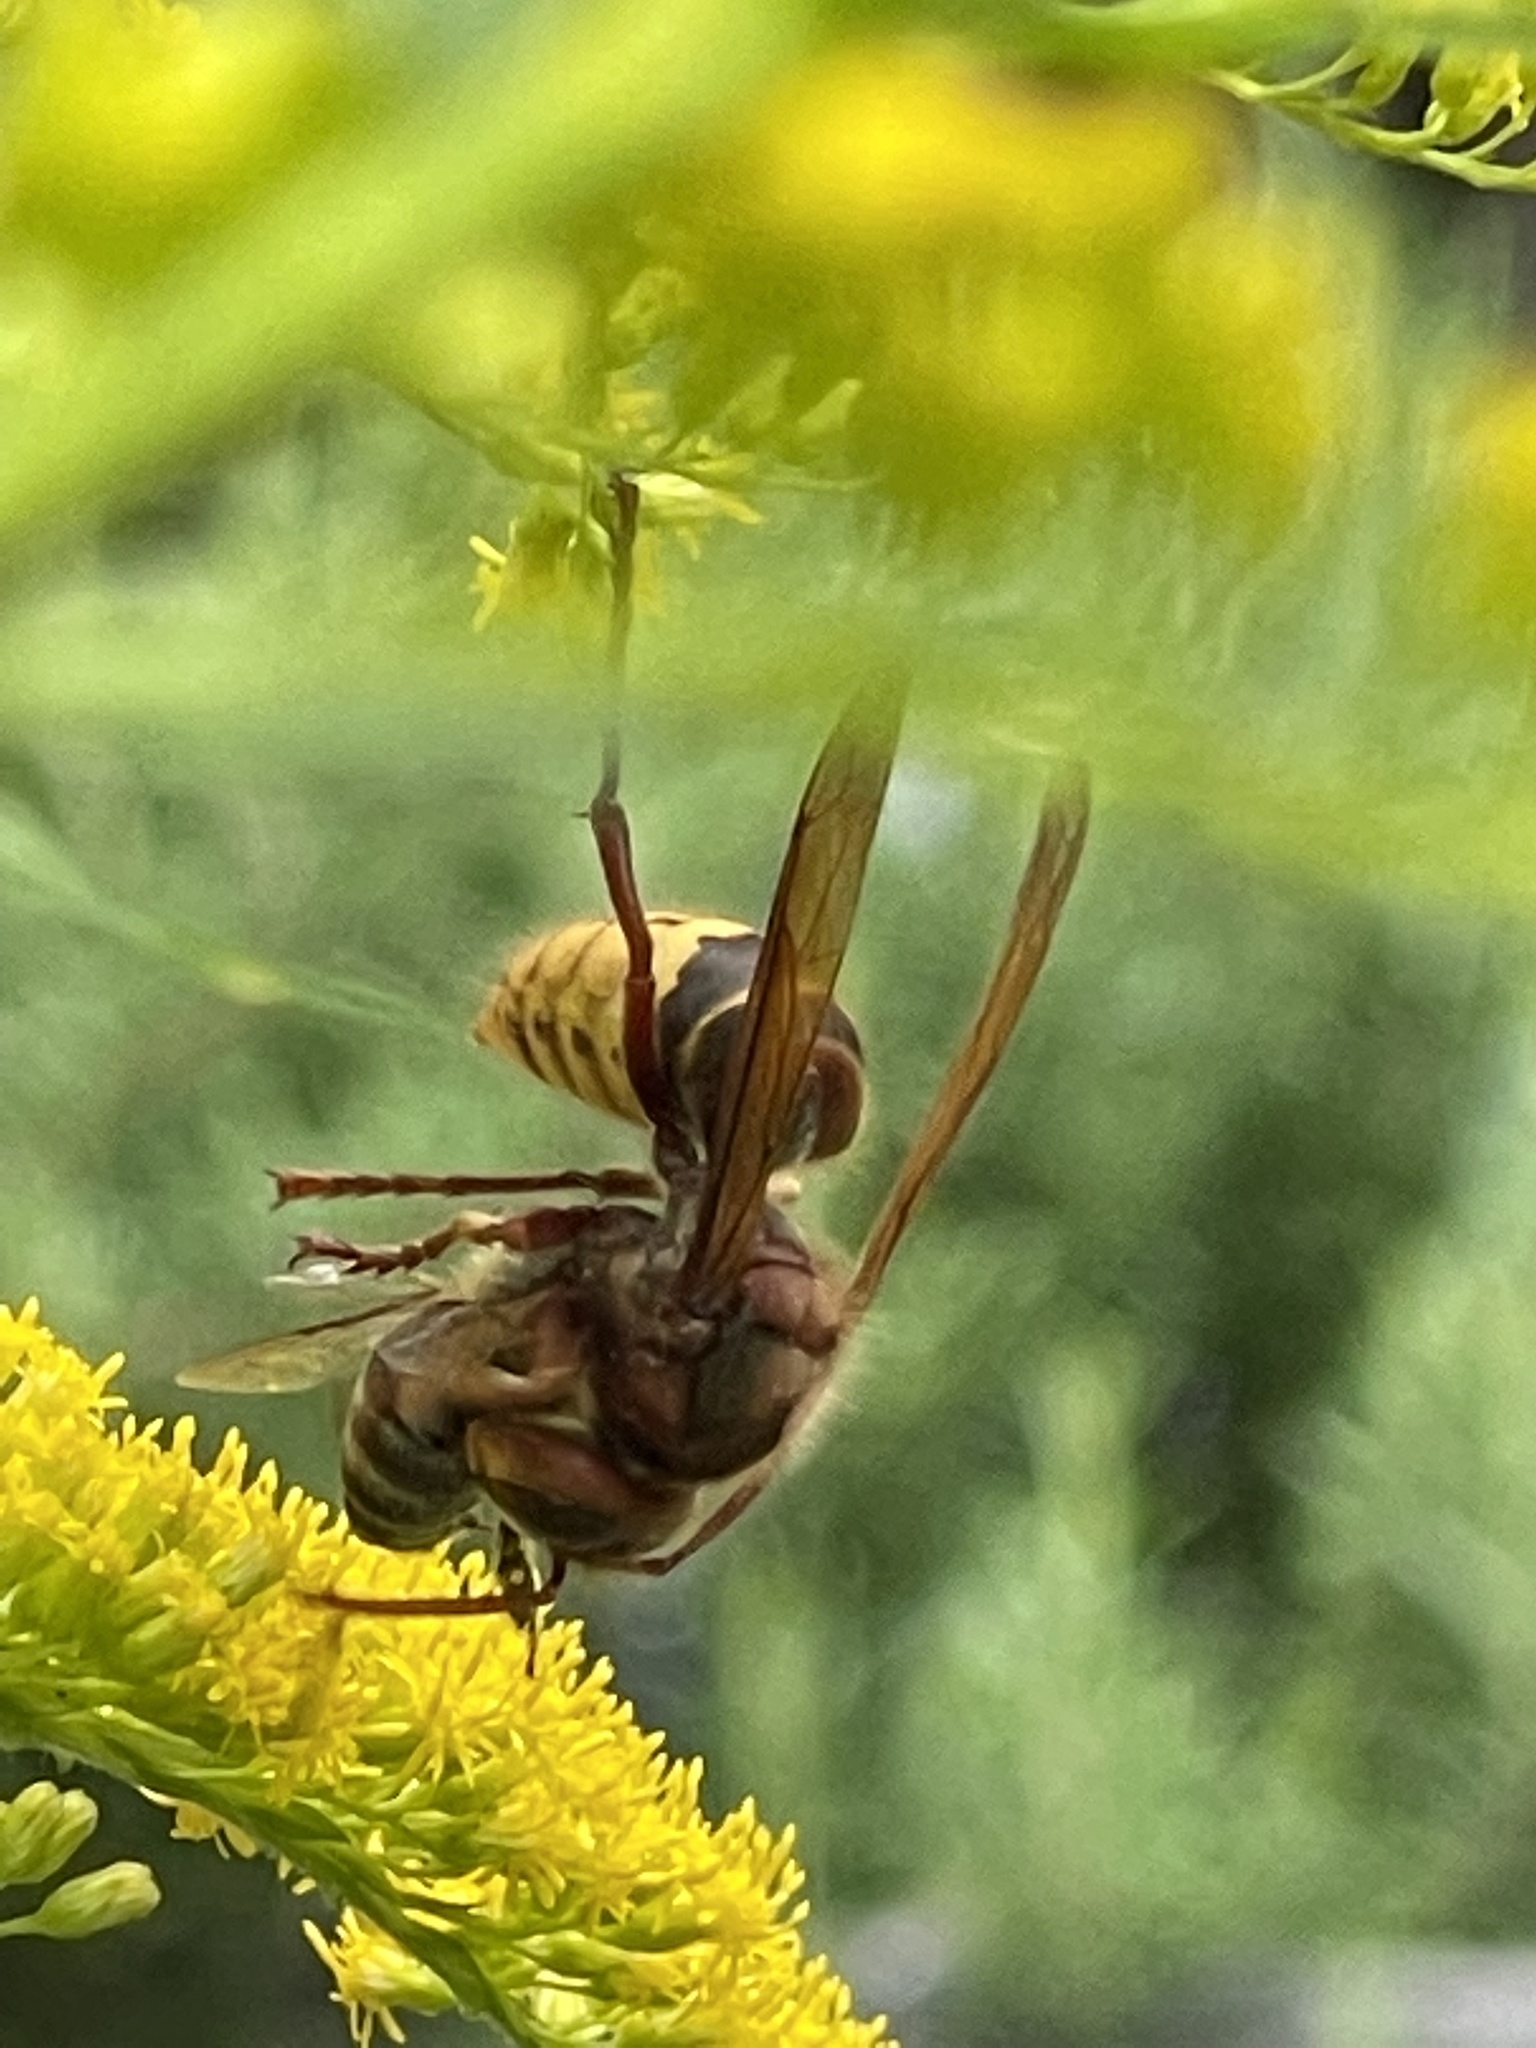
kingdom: Animalia
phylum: Arthropoda
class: Insecta
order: Hymenoptera
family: Vespidae
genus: Vespa
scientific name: Vespa crabro
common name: Hornet
